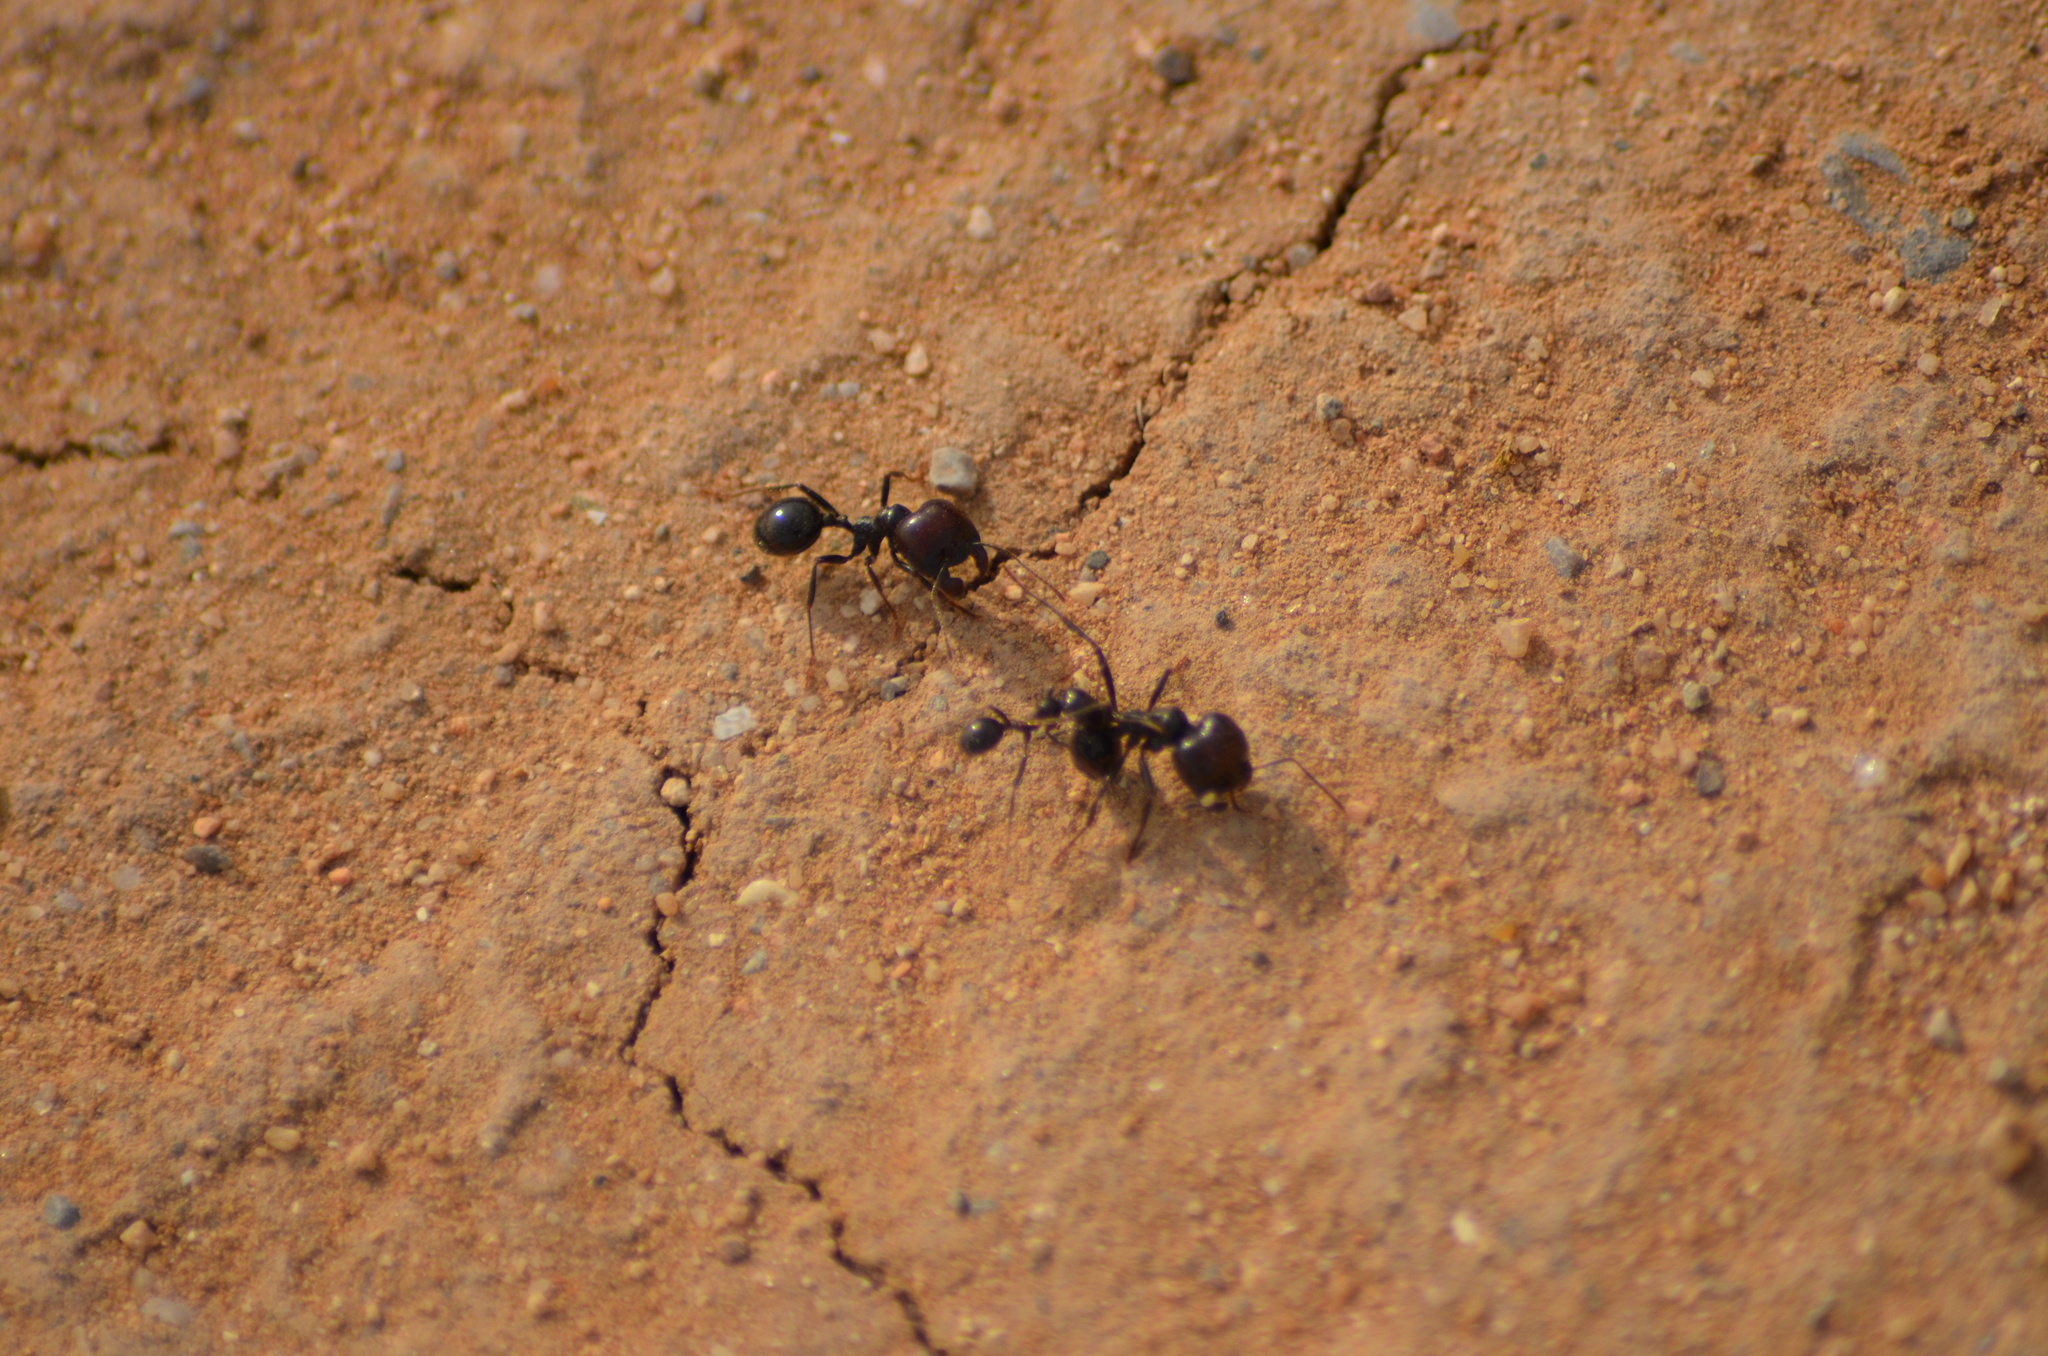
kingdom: Animalia
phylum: Arthropoda
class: Insecta
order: Hymenoptera
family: Formicidae
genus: Messor
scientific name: Messor barbarus
